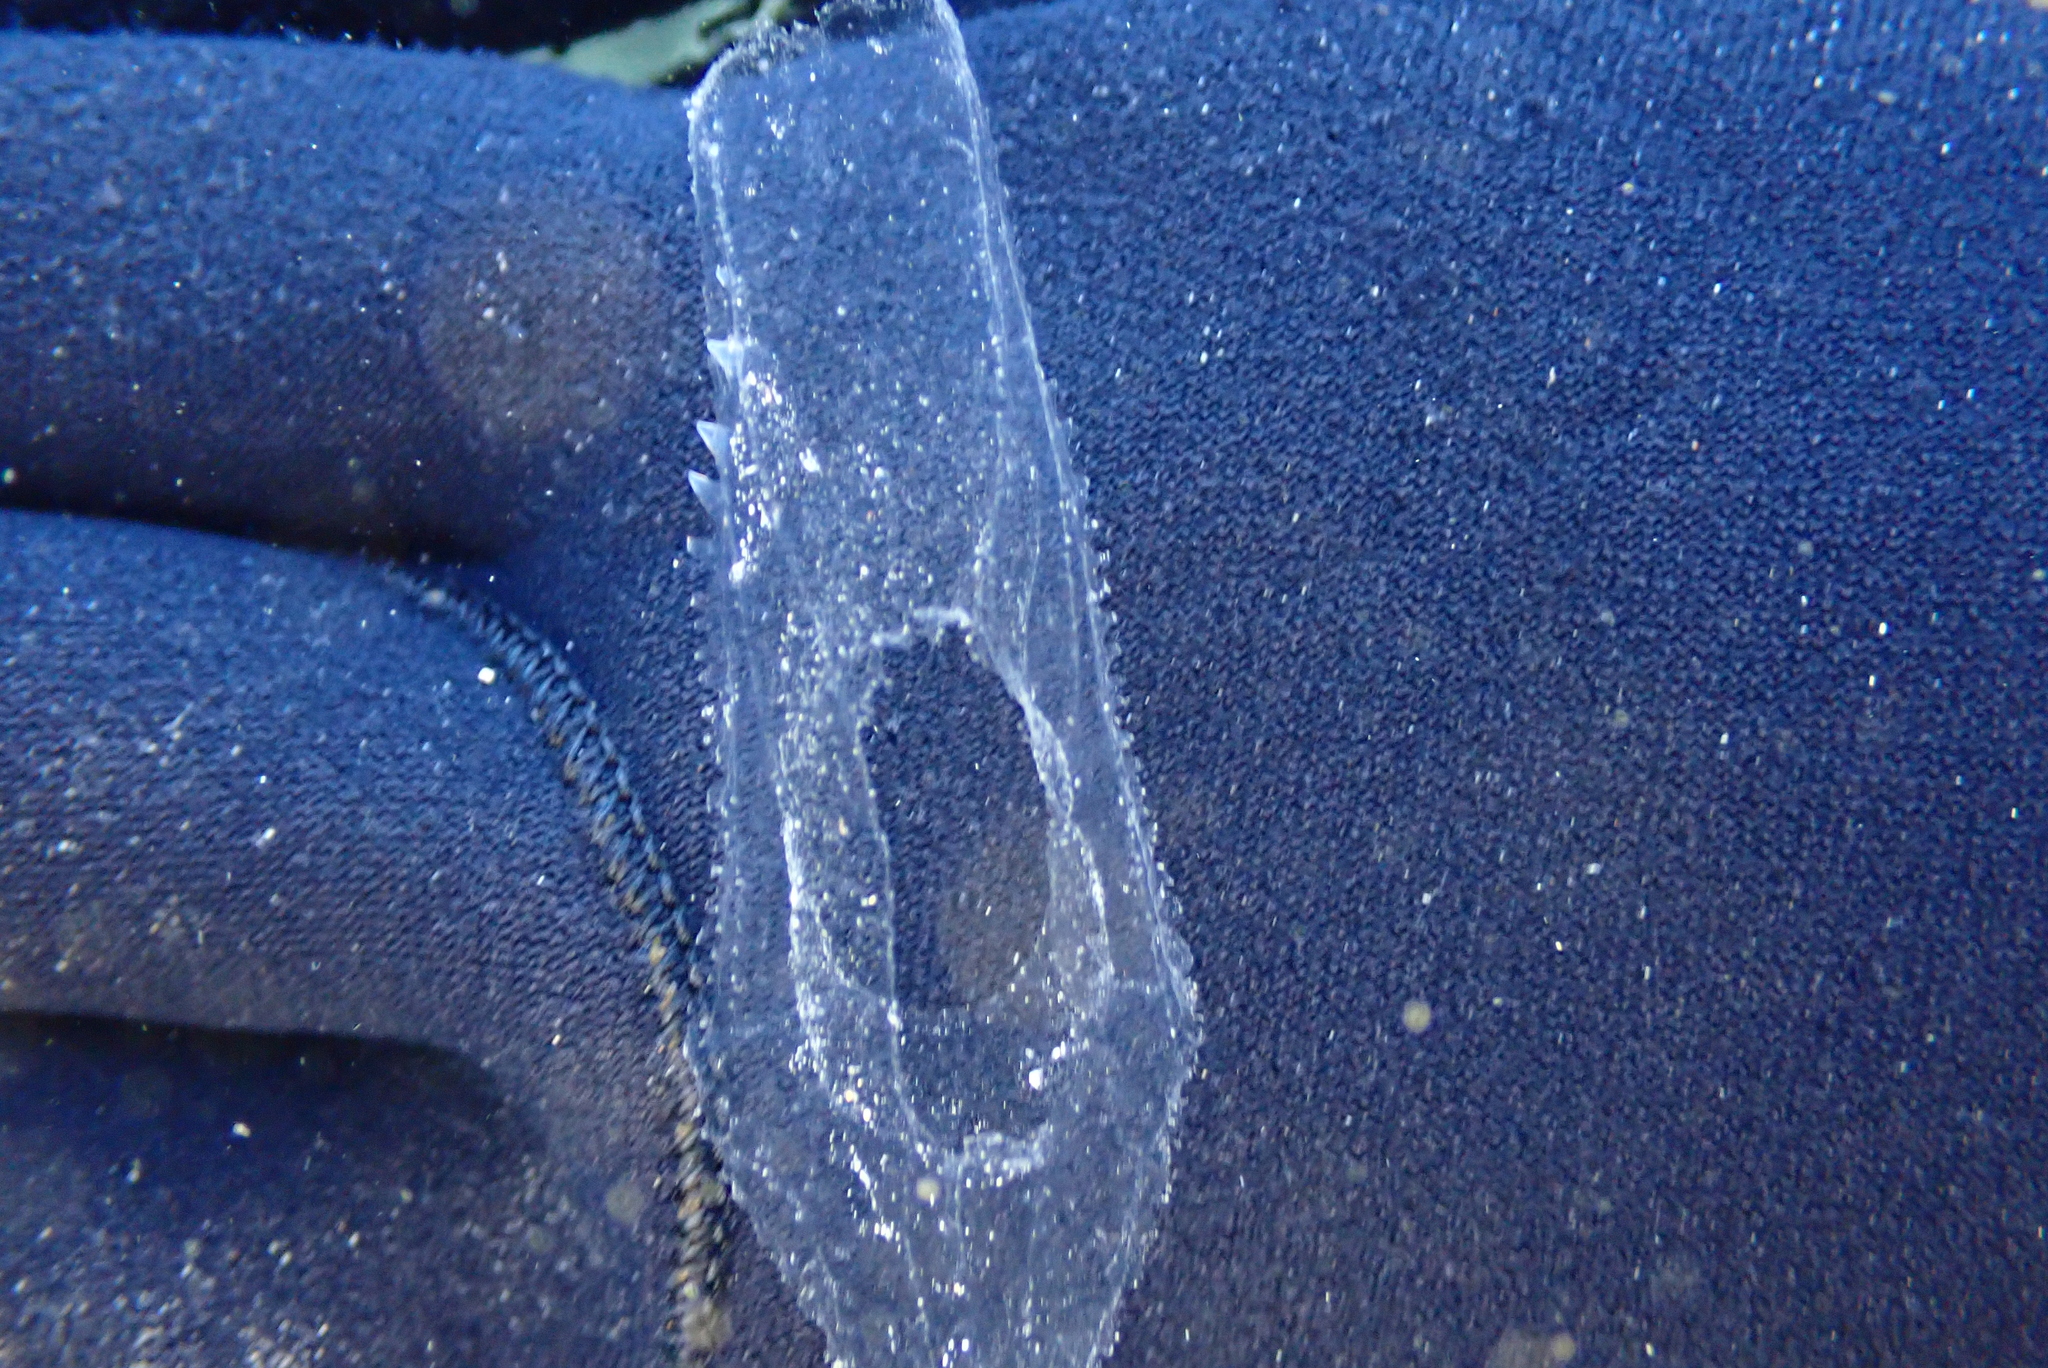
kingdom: Animalia
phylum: Mollusca
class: Gastropoda
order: Pteropoda
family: Cymbuliidae
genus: Cymbulia
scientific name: Cymbulia peronii
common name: Sword of venus
